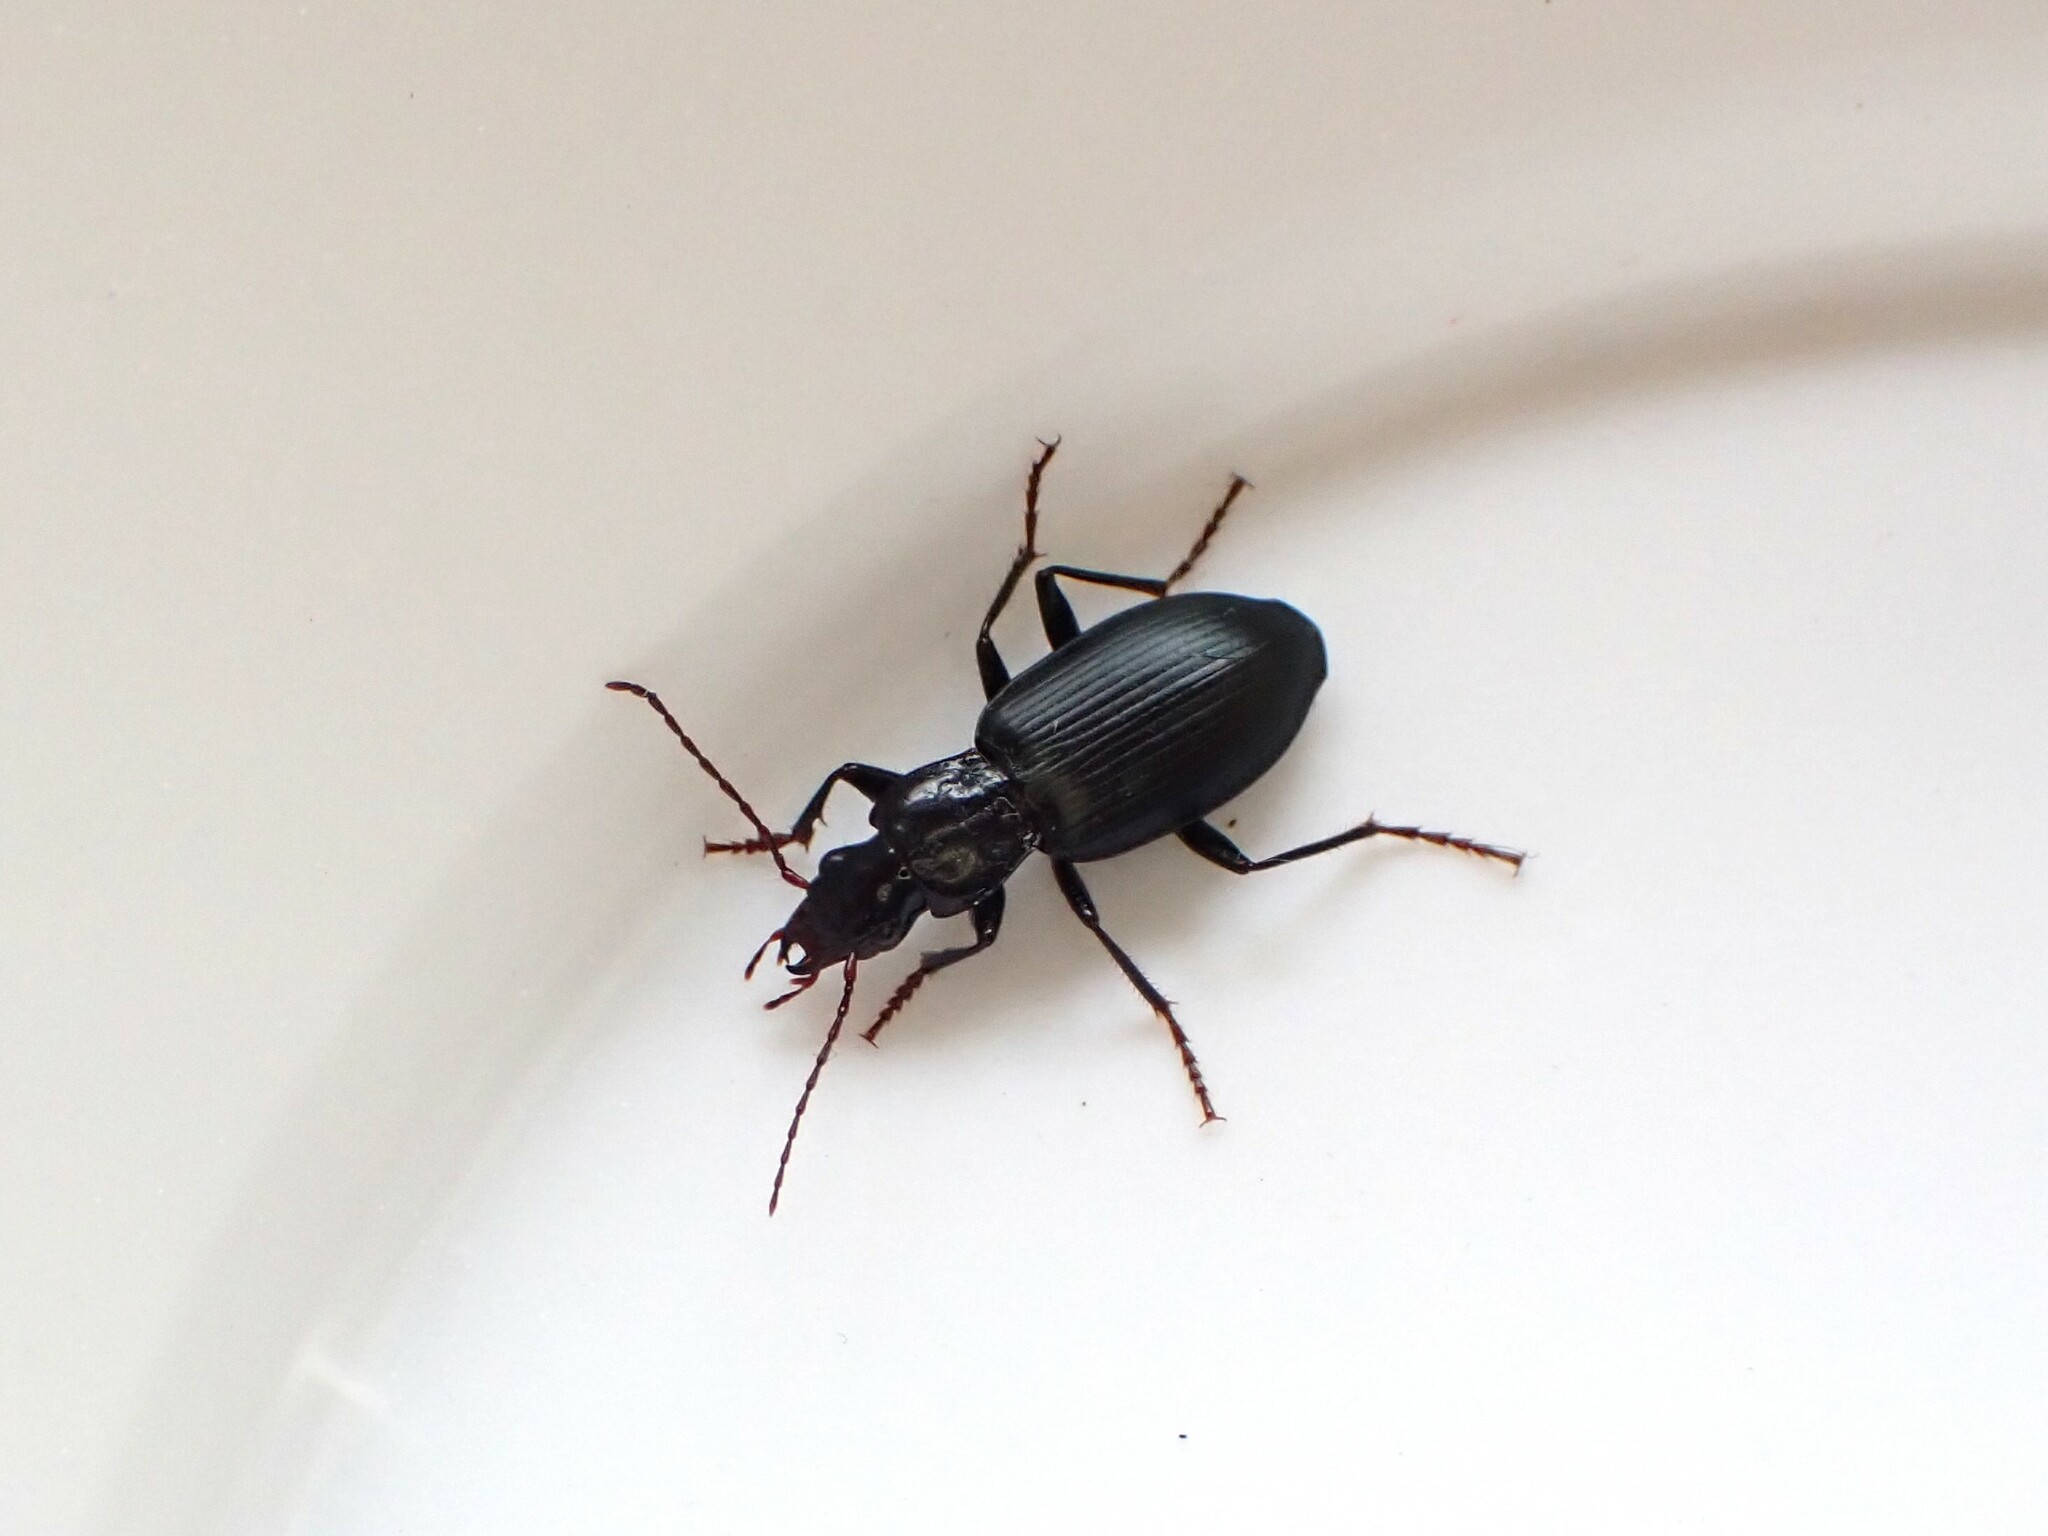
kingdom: Animalia
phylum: Arthropoda
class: Insecta
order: Coleoptera
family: Carabidae
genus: Laemostenus
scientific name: Laemostenus complanatus
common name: Cosmopolitan ground beetle
